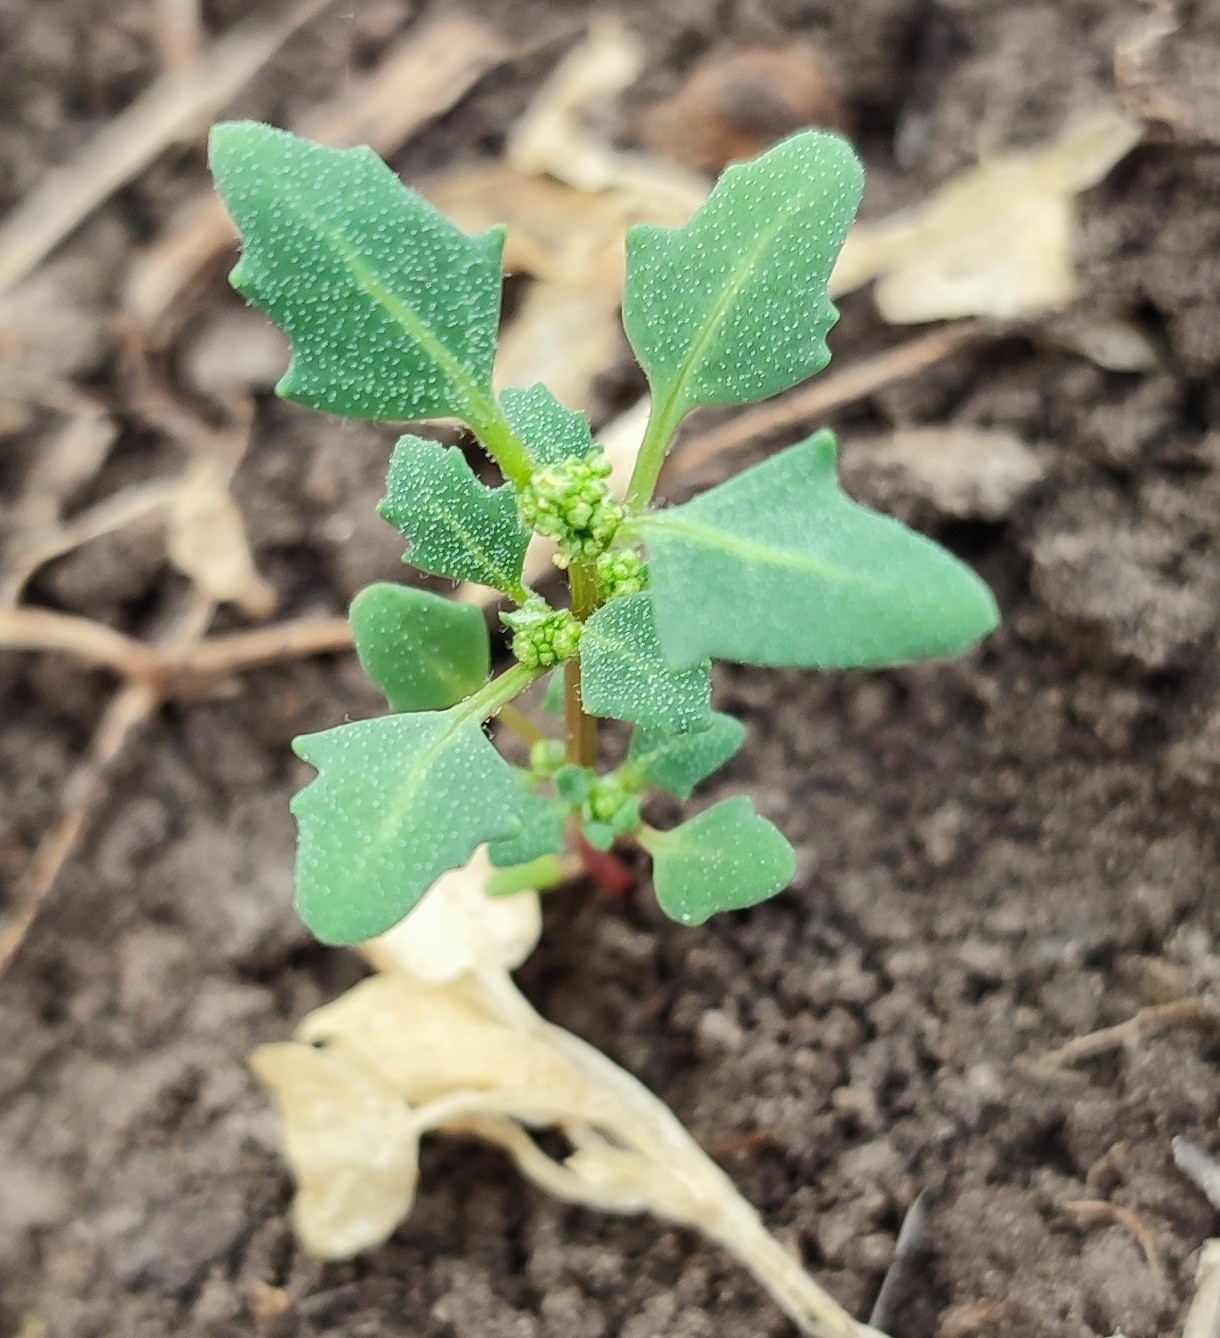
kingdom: Plantae
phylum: Tracheophyta
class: Magnoliopsida
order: Caryophyllales
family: Amaranthaceae
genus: Oxybasis
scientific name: Oxybasis glauca
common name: Glaucous goosefoot
